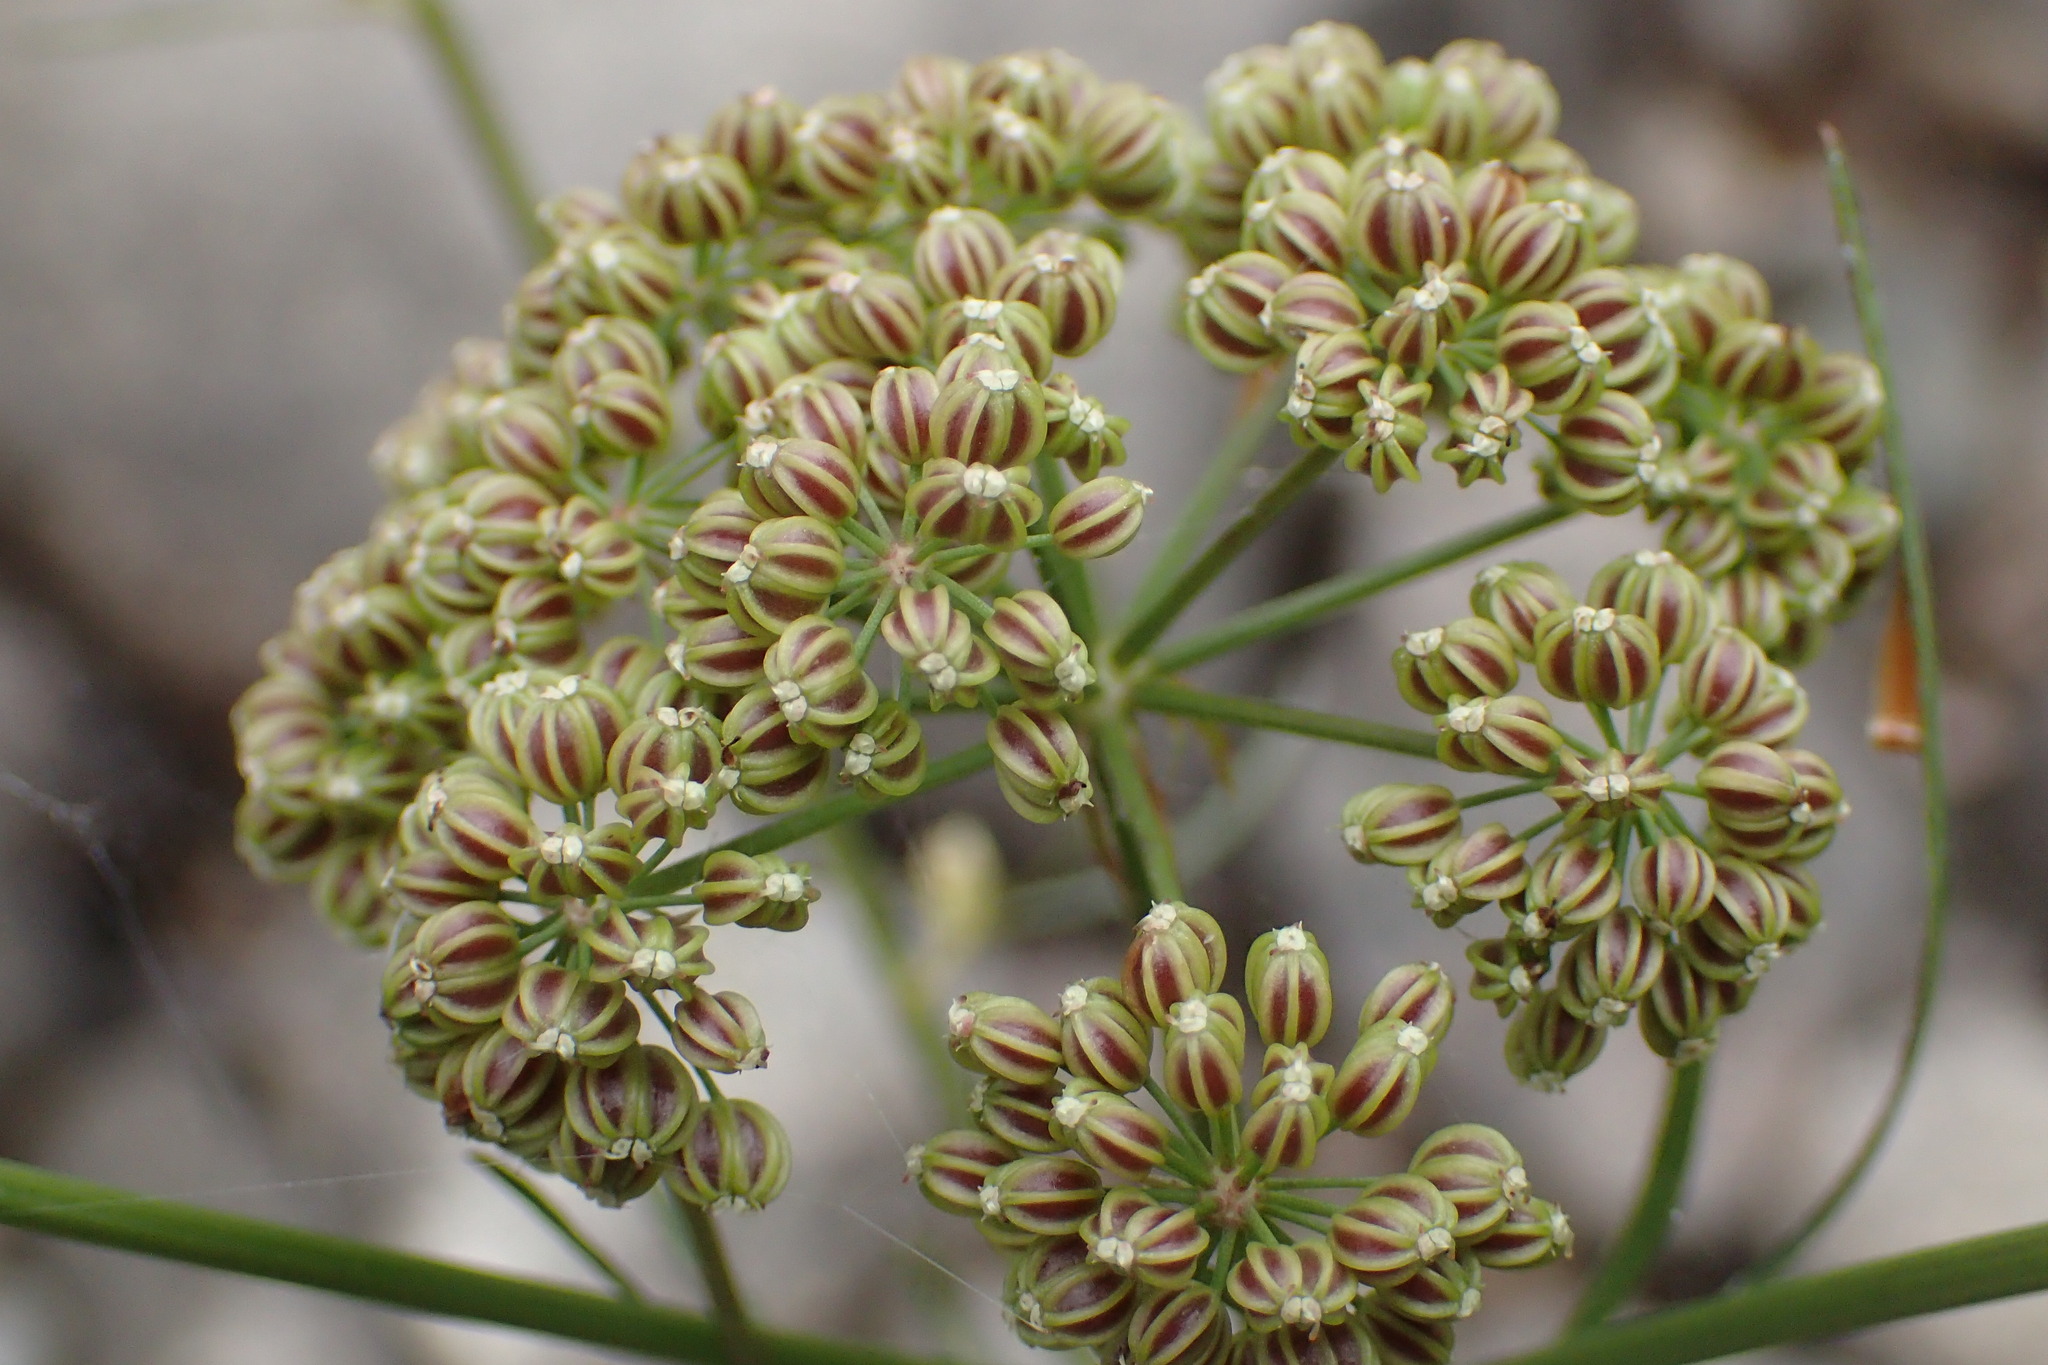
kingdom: Plantae
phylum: Tracheophyta
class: Magnoliopsida
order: Apiales
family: Apiaceae
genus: Sium
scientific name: Sium suave
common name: Hemlock water-parsnip
